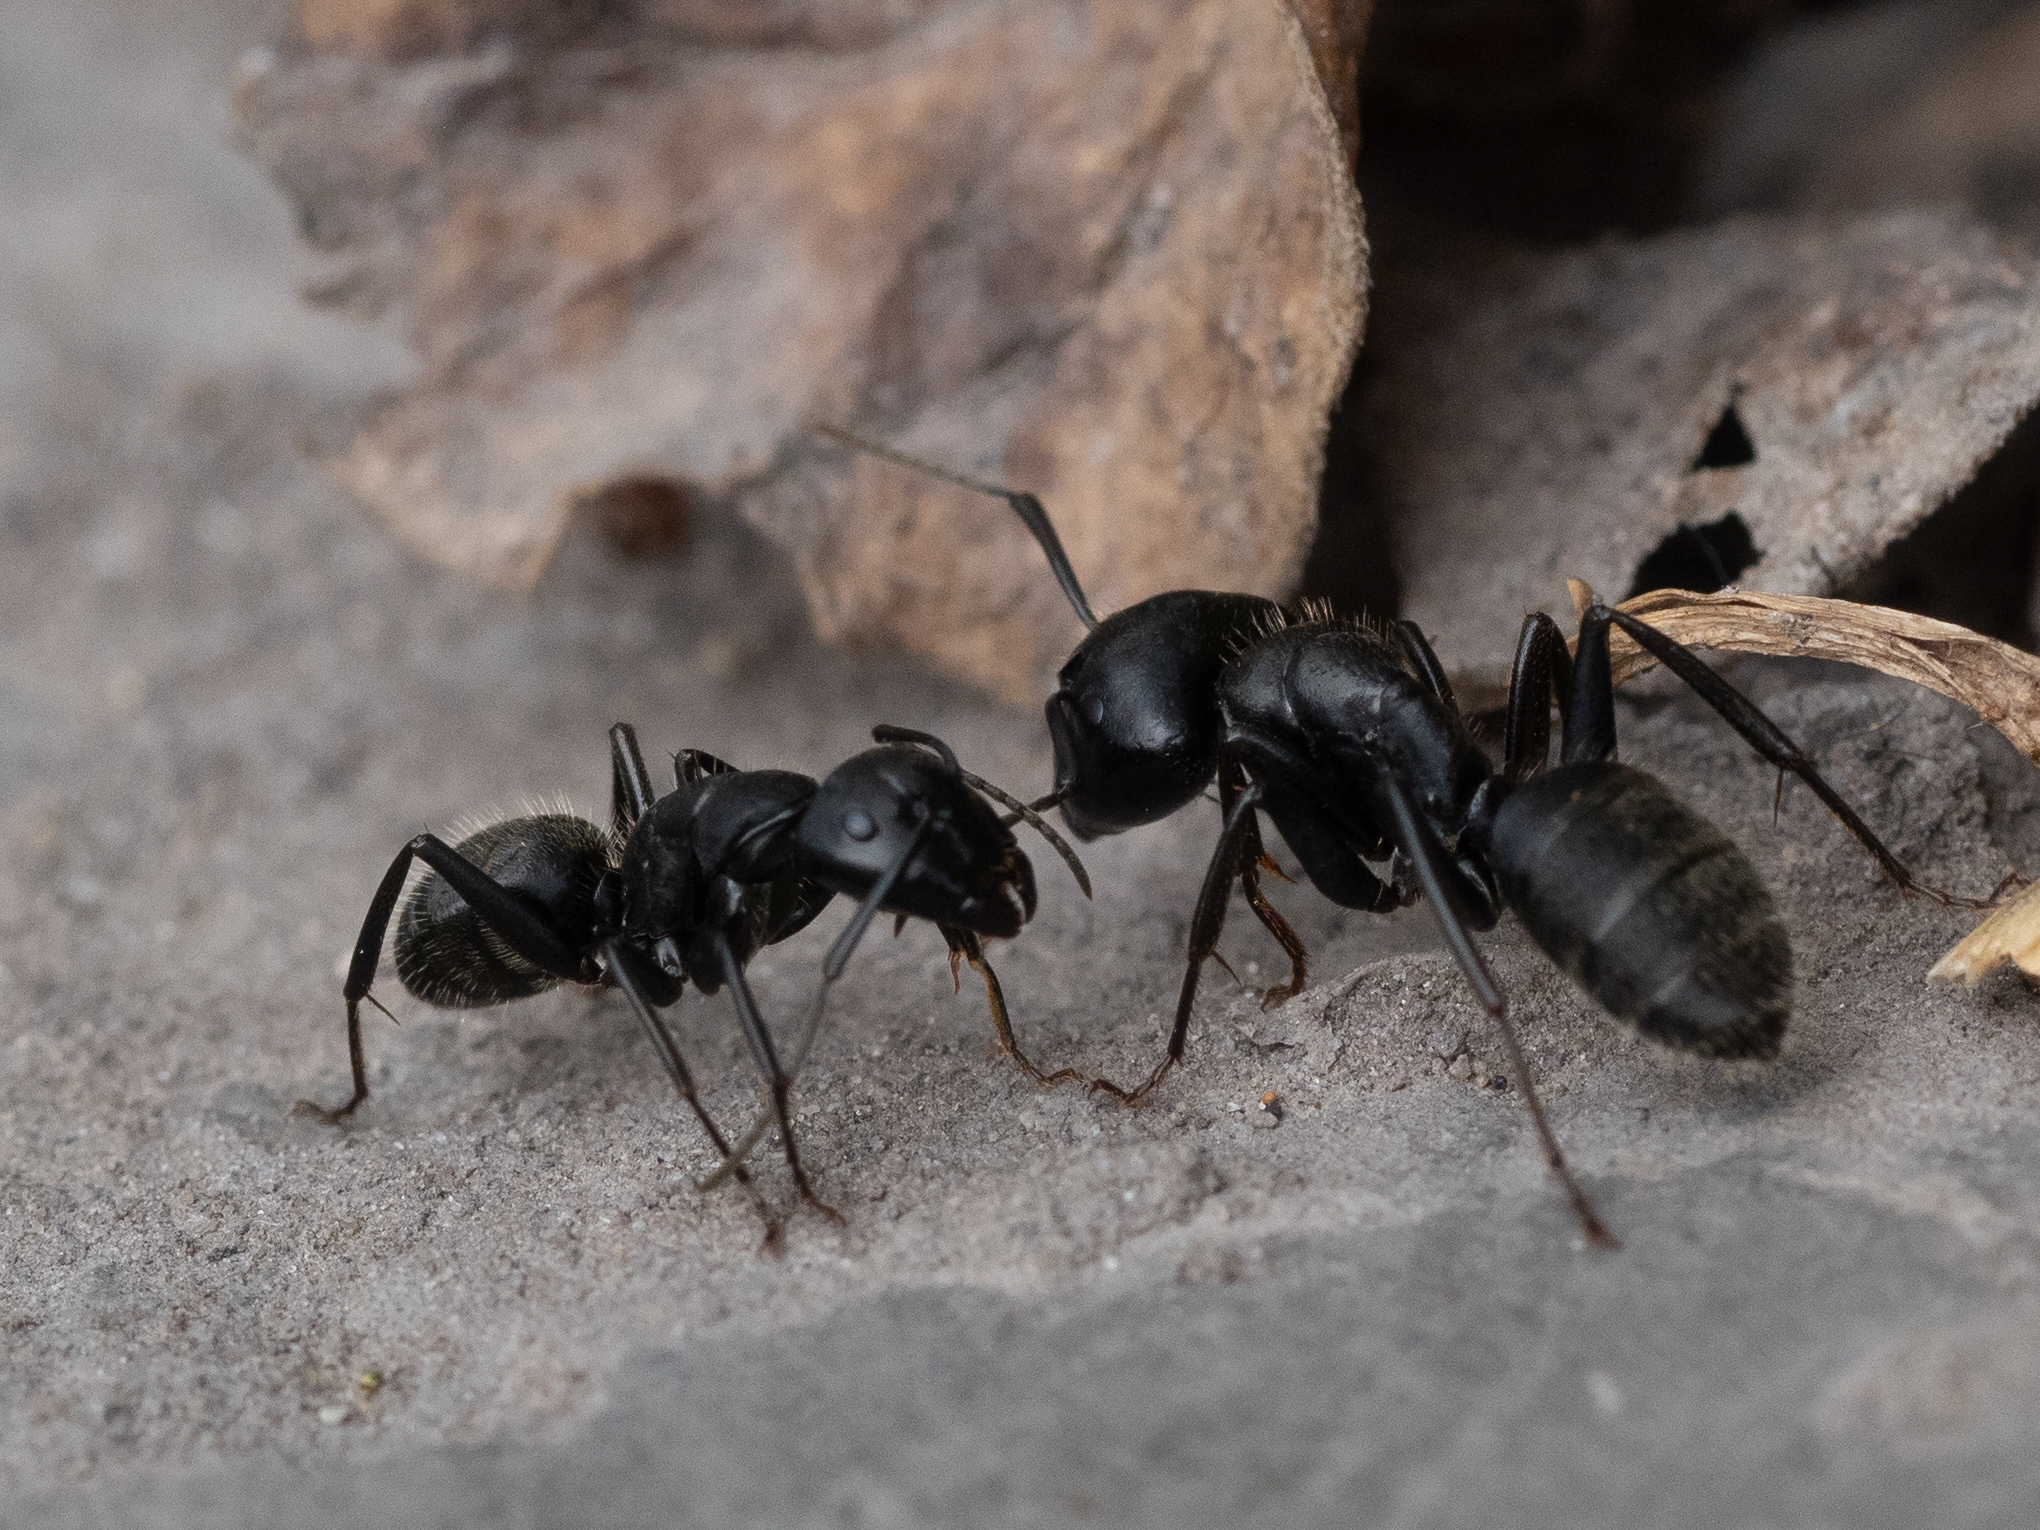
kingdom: Animalia
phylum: Arthropoda
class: Insecta
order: Hymenoptera
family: Formicidae
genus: Camponotus
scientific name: Camponotus vagus
